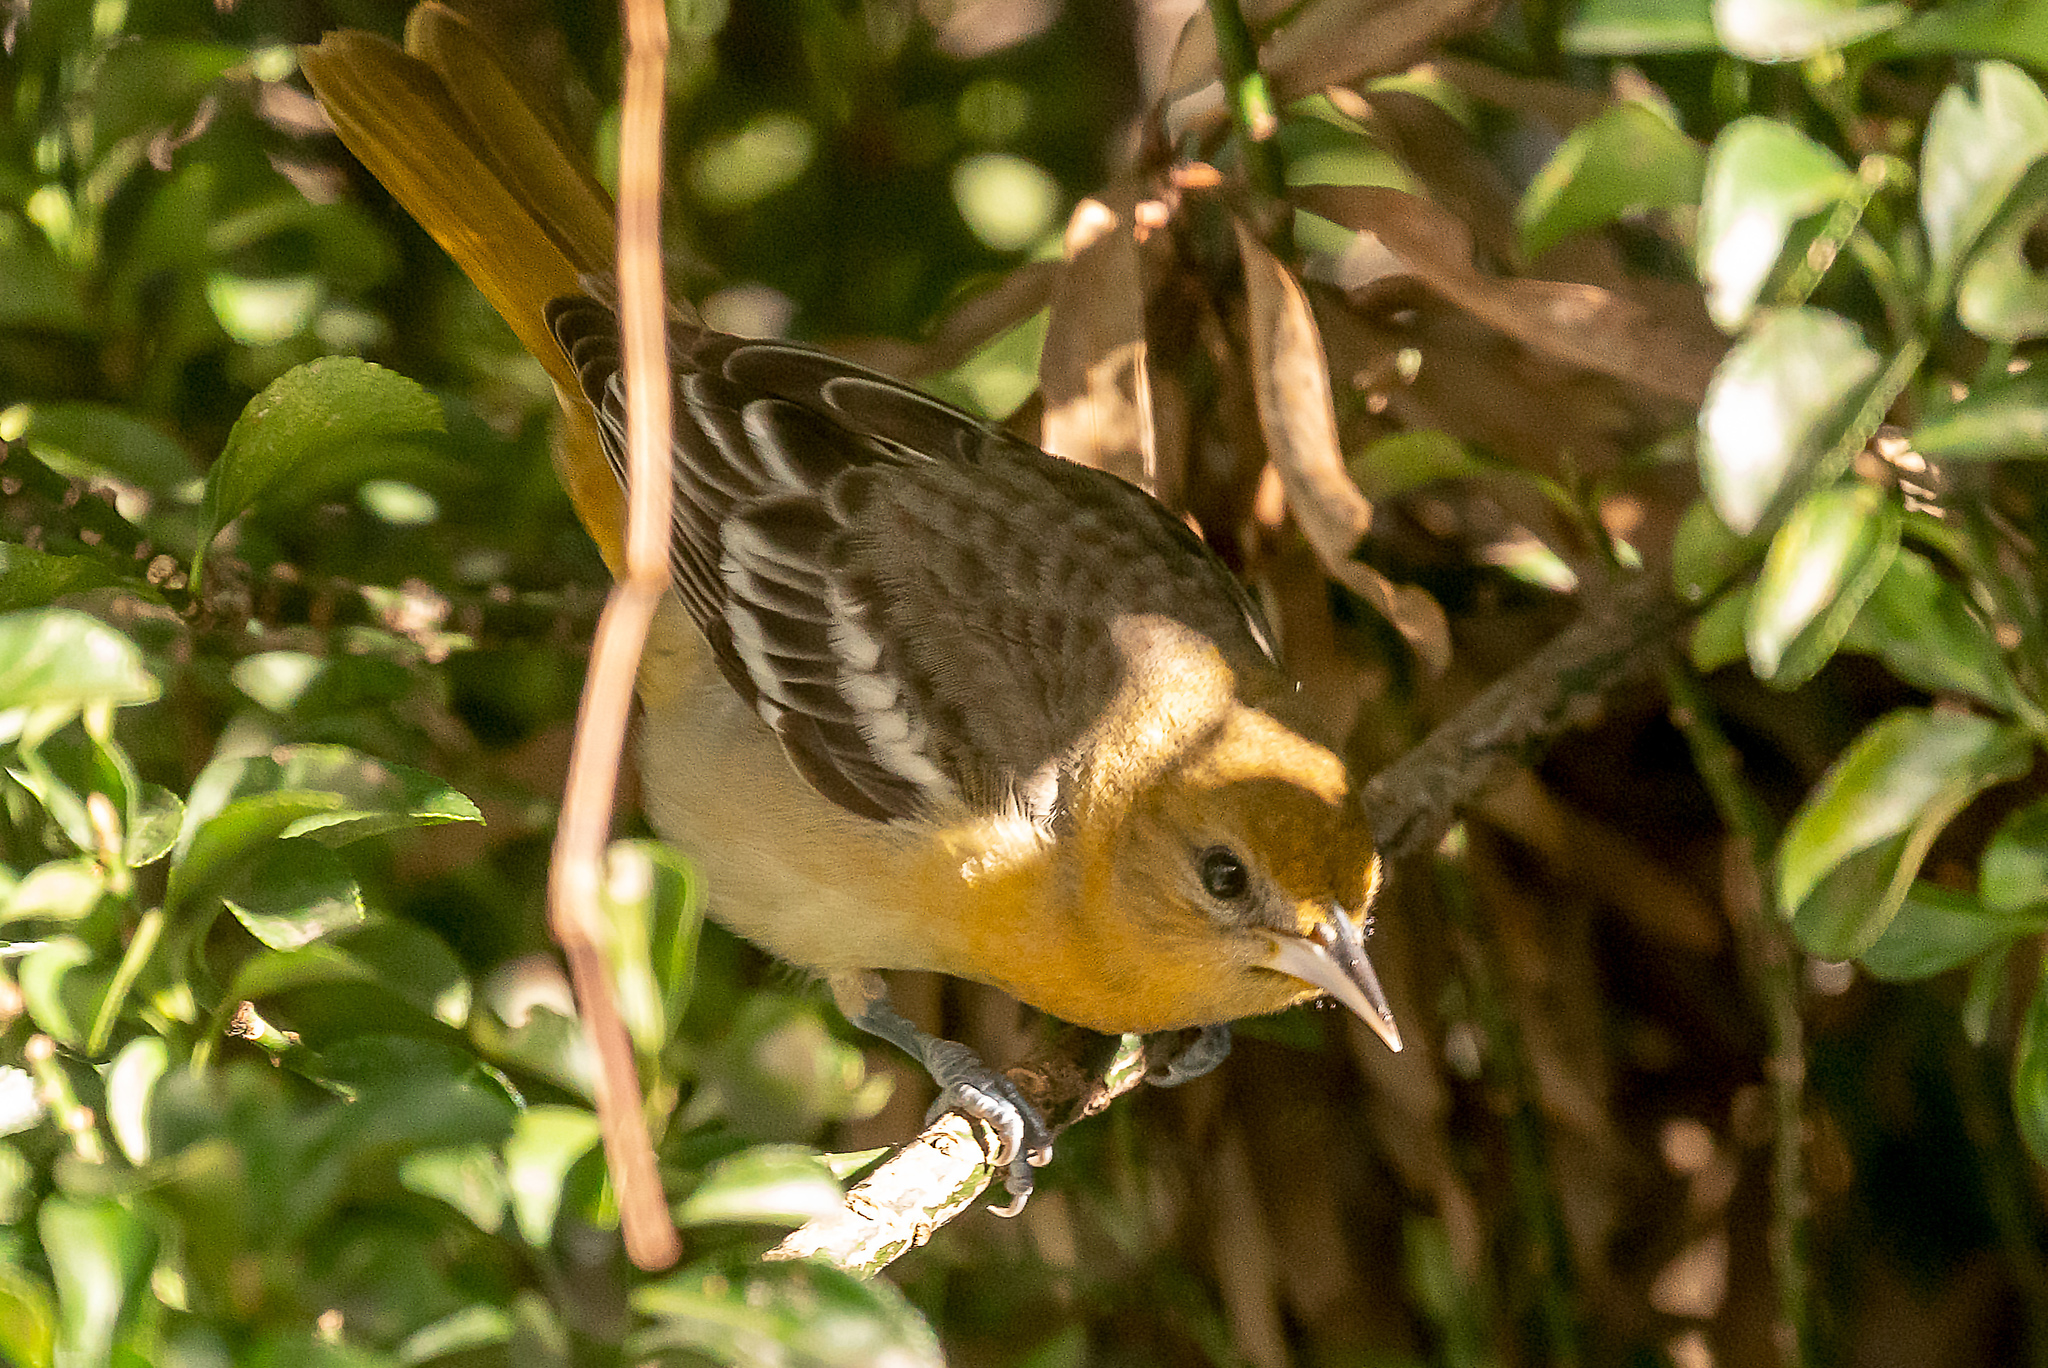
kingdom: Animalia
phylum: Chordata
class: Aves
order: Passeriformes
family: Icteridae
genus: Icterus
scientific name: Icterus galbula
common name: Baltimore oriole
